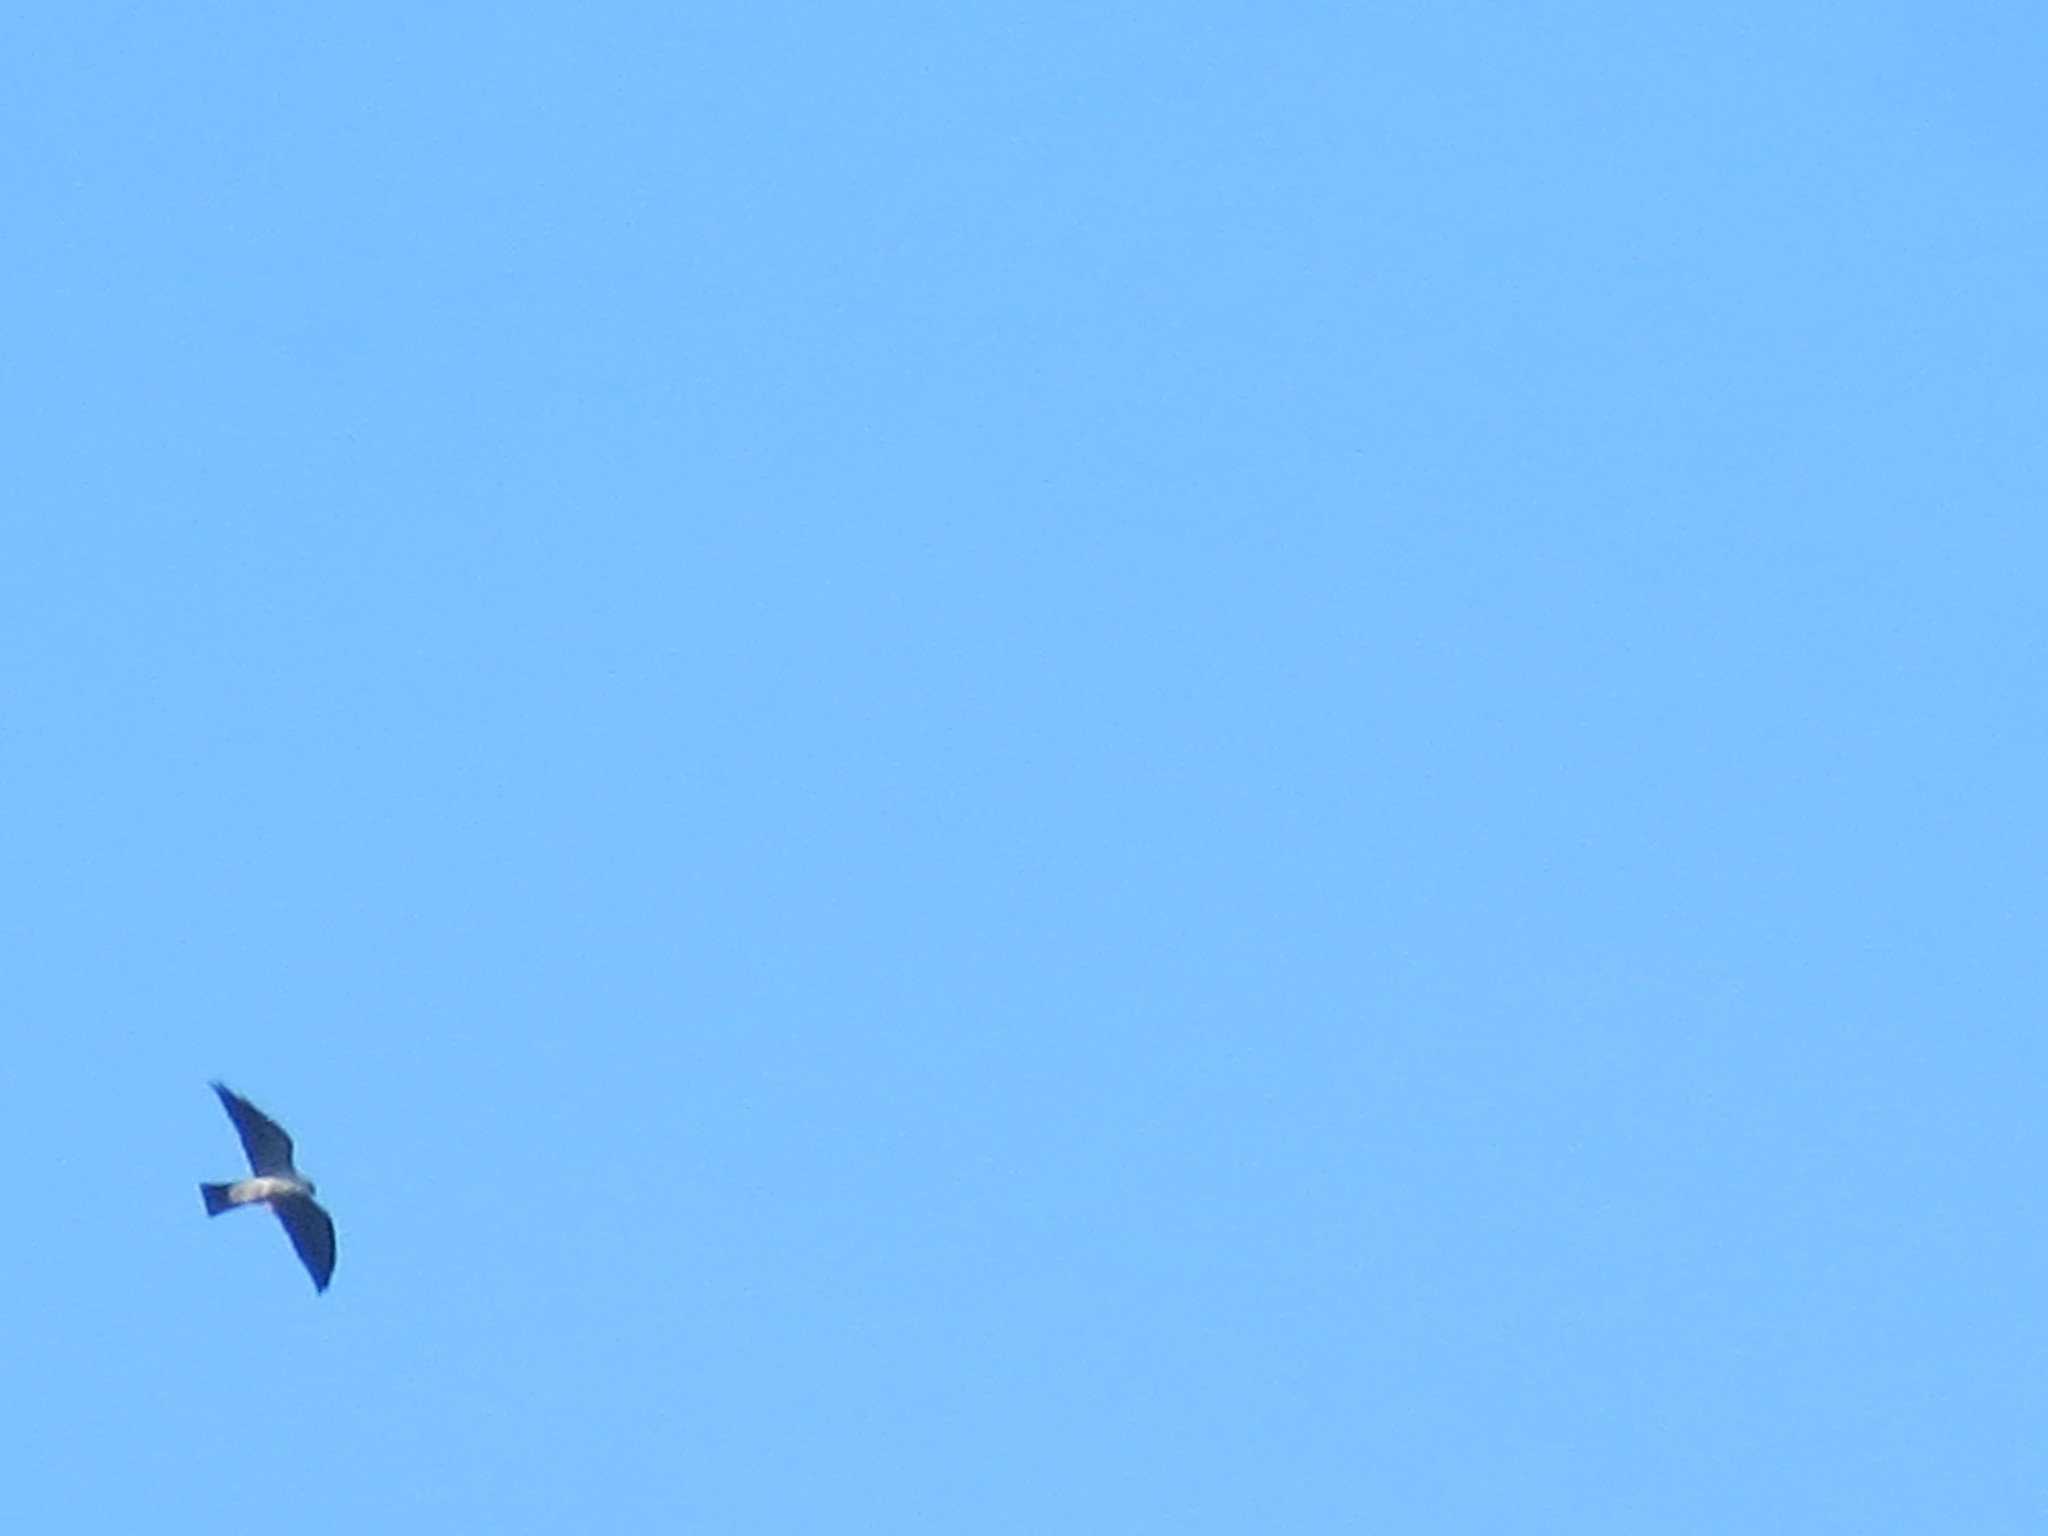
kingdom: Animalia
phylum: Chordata
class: Aves
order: Accipitriformes
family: Accipitridae
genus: Ictinia
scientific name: Ictinia mississippiensis
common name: Mississippi kite
